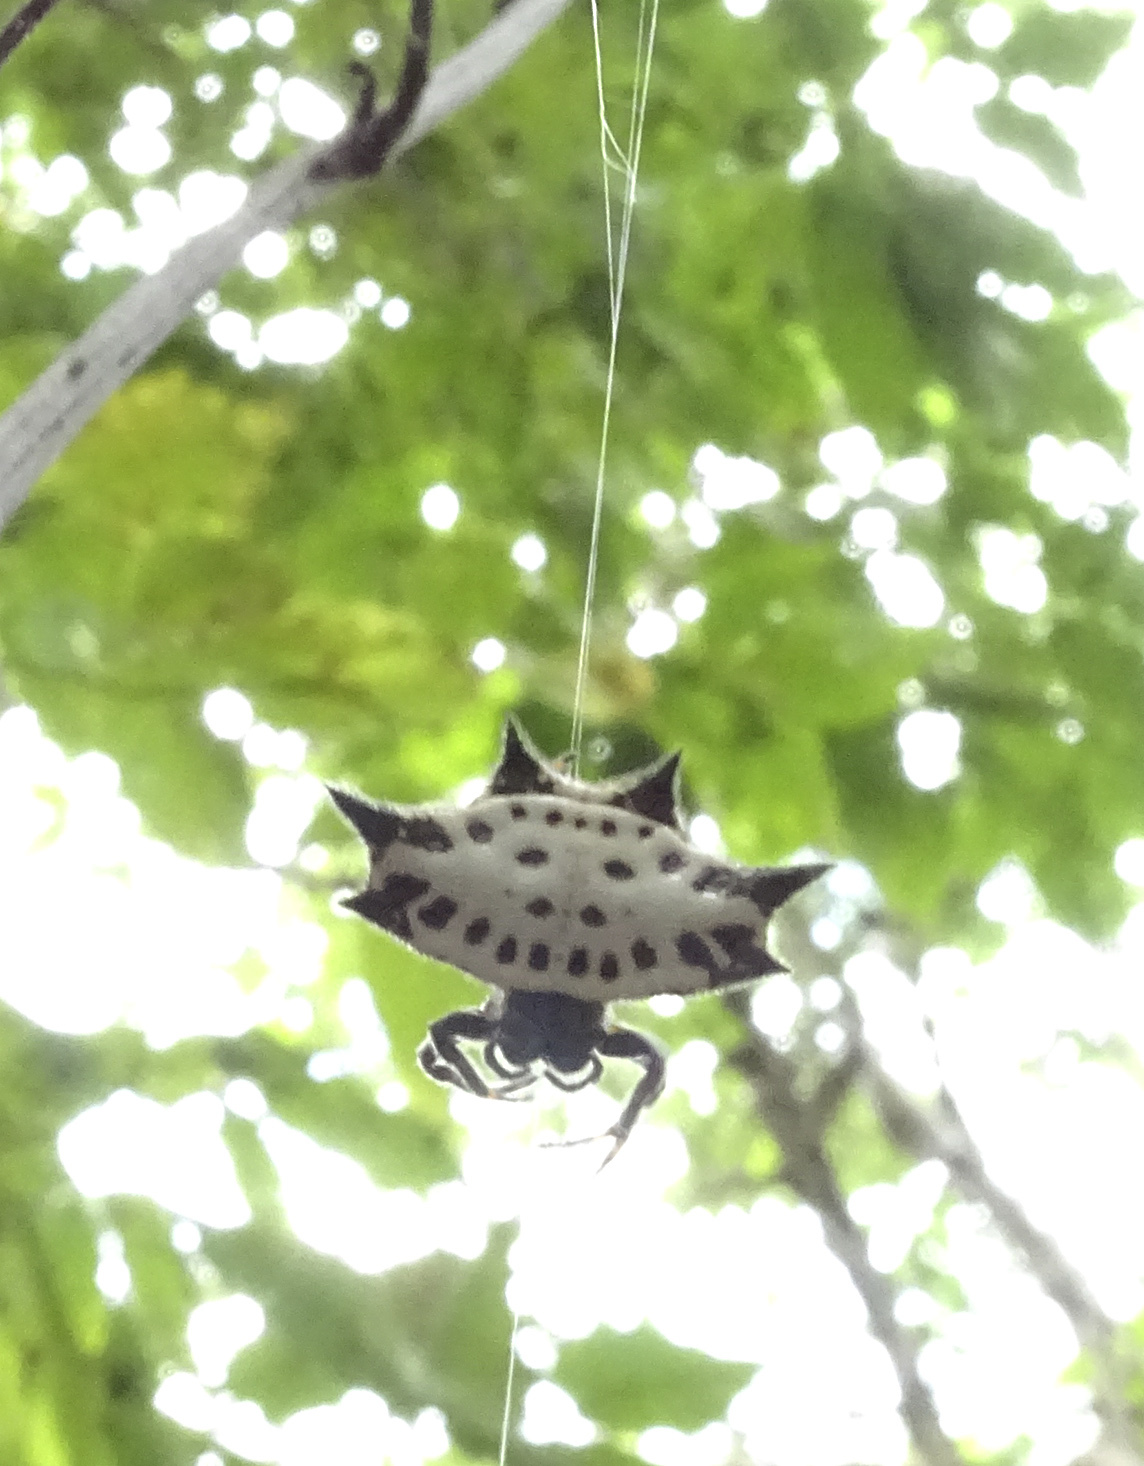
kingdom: Animalia
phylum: Arthropoda
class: Arachnida
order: Araneae
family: Araneidae
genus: Gasteracantha
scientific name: Gasteracantha cancriformis
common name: Orb weavers
